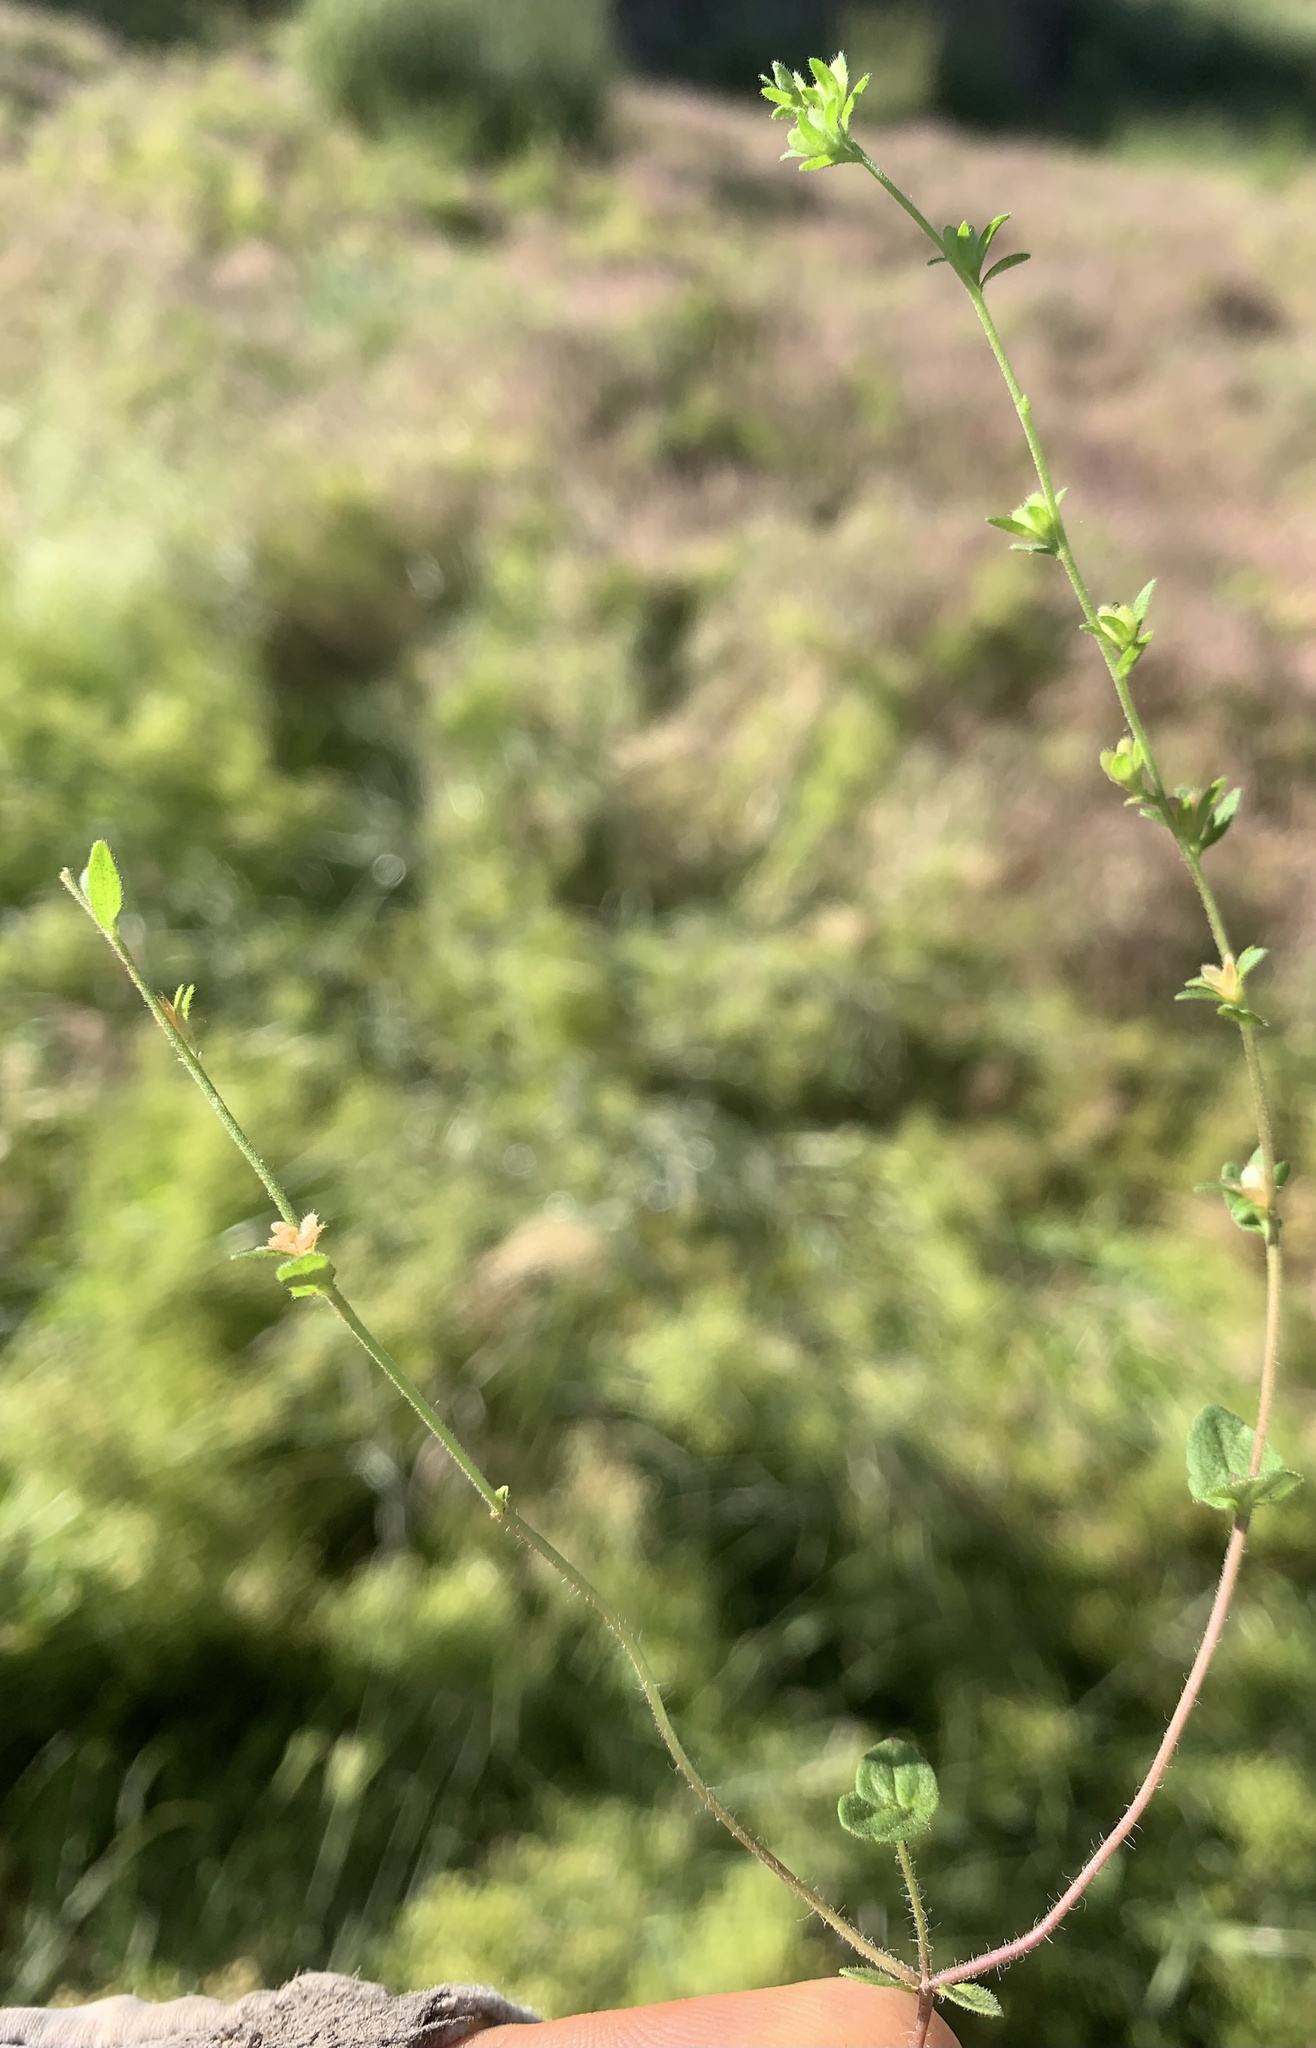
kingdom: Plantae
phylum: Tracheophyta
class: Magnoliopsida
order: Lamiales
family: Plantaginaceae
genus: Veronica
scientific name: Veronica arvensis
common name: Corn speedwell
